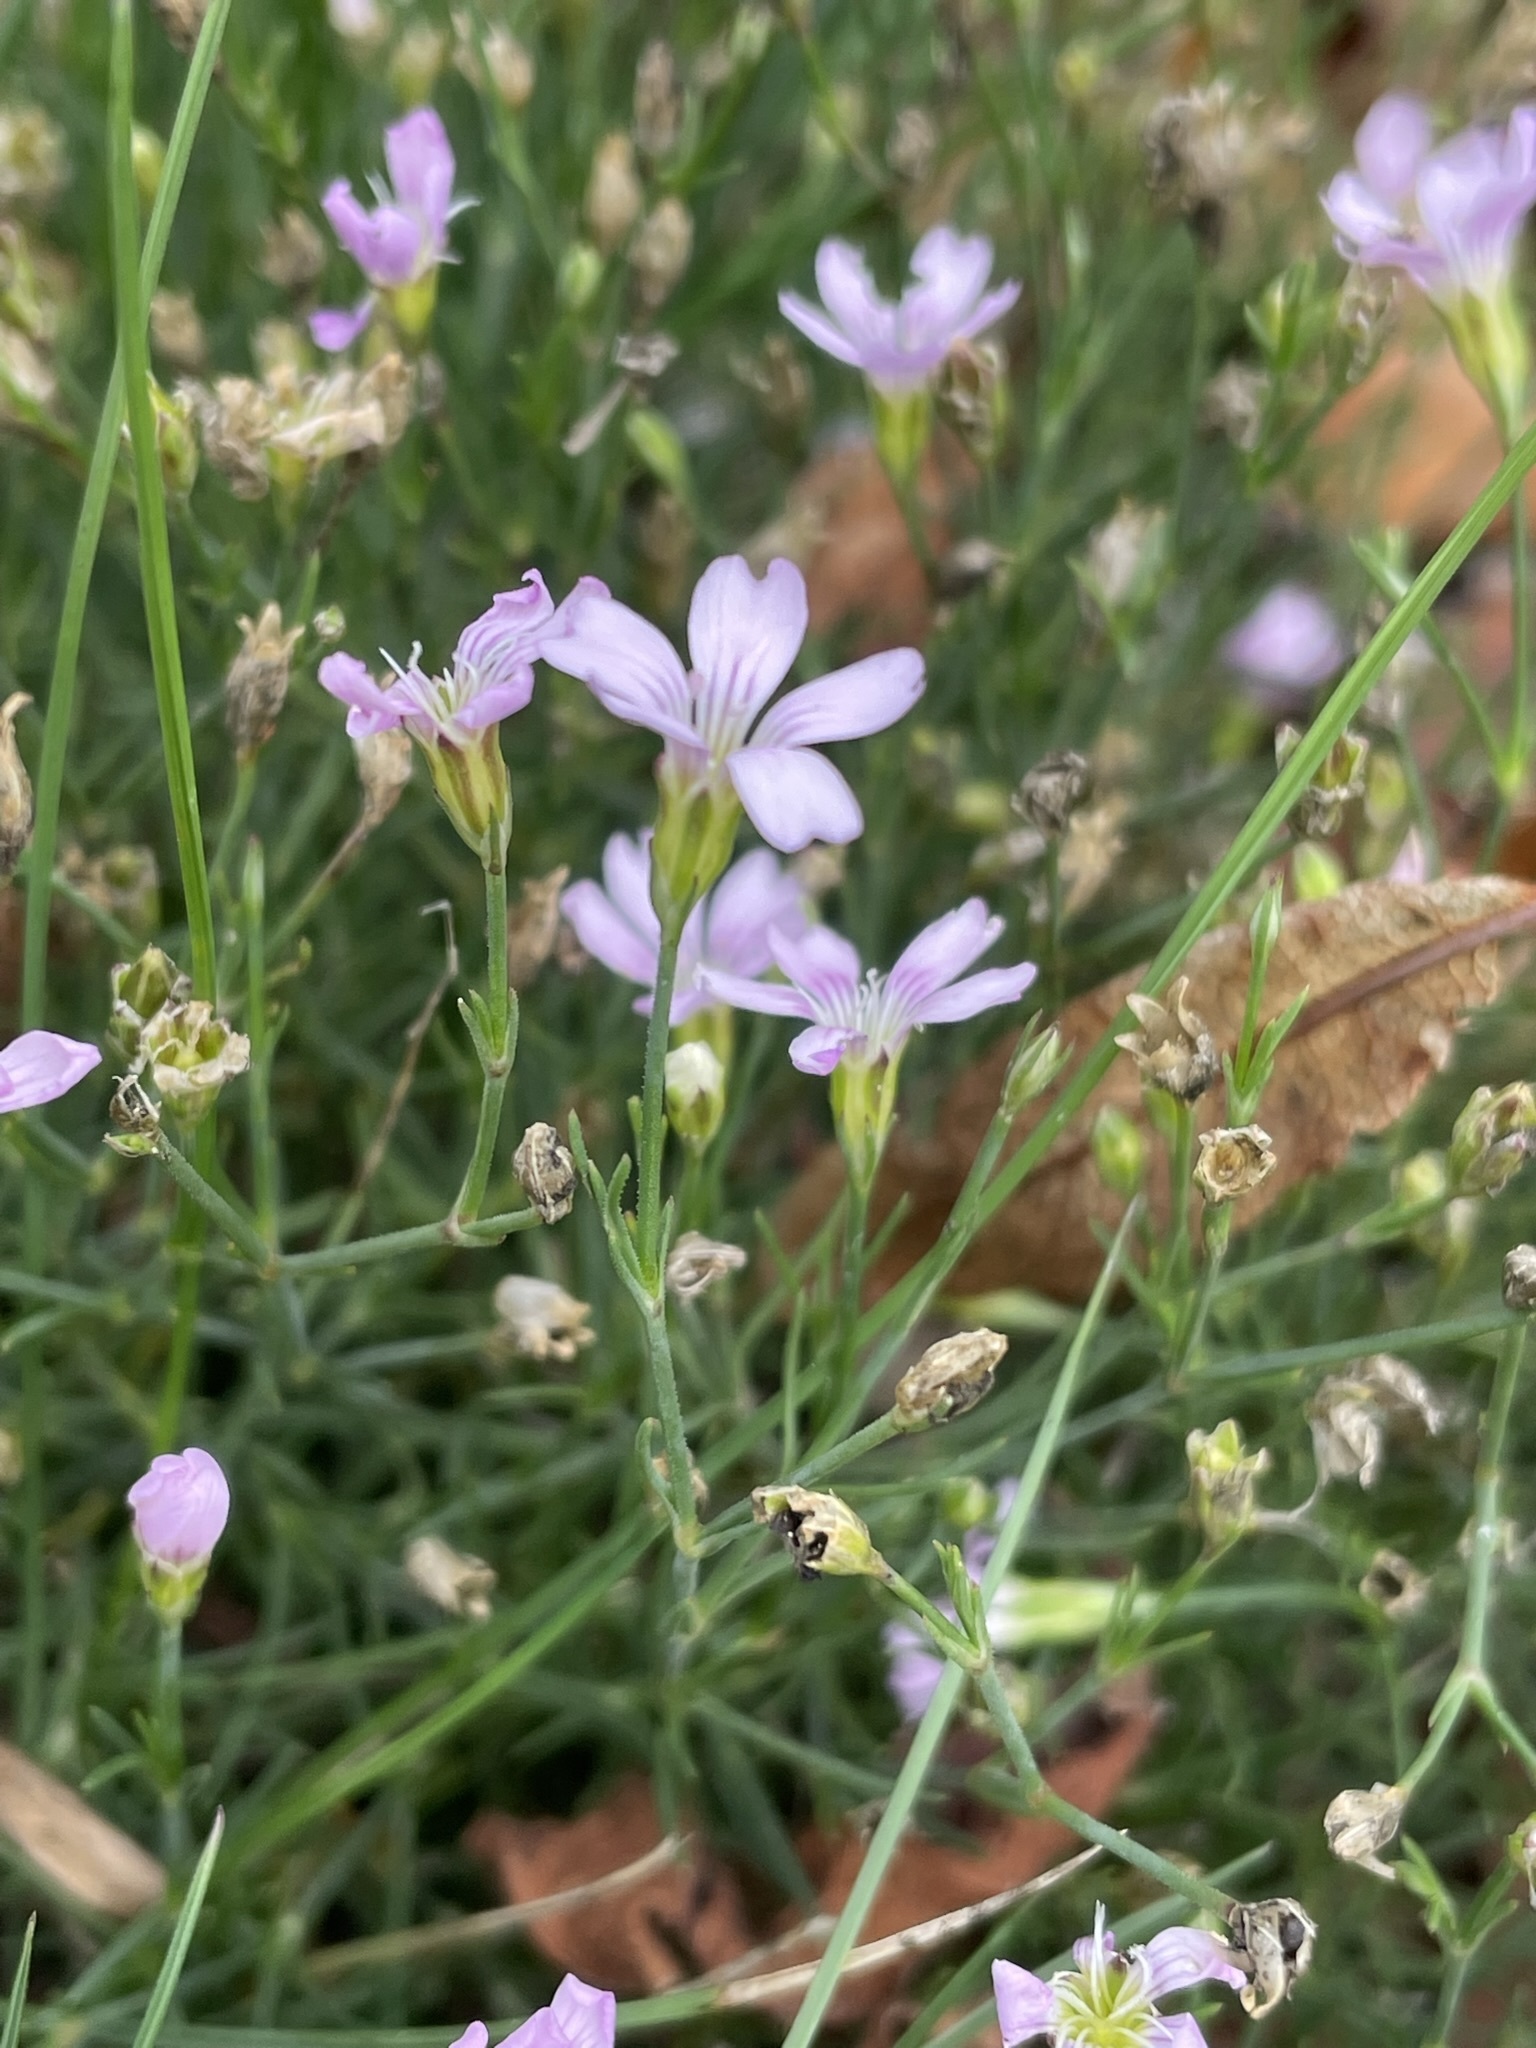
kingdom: Plantae
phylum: Tracheophyta
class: Magnoliopsida
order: Caryophyllales
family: Caryophyllaceae
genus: Petrorhagia
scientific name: Petrorhagia saxifraga
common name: Tunicflower
